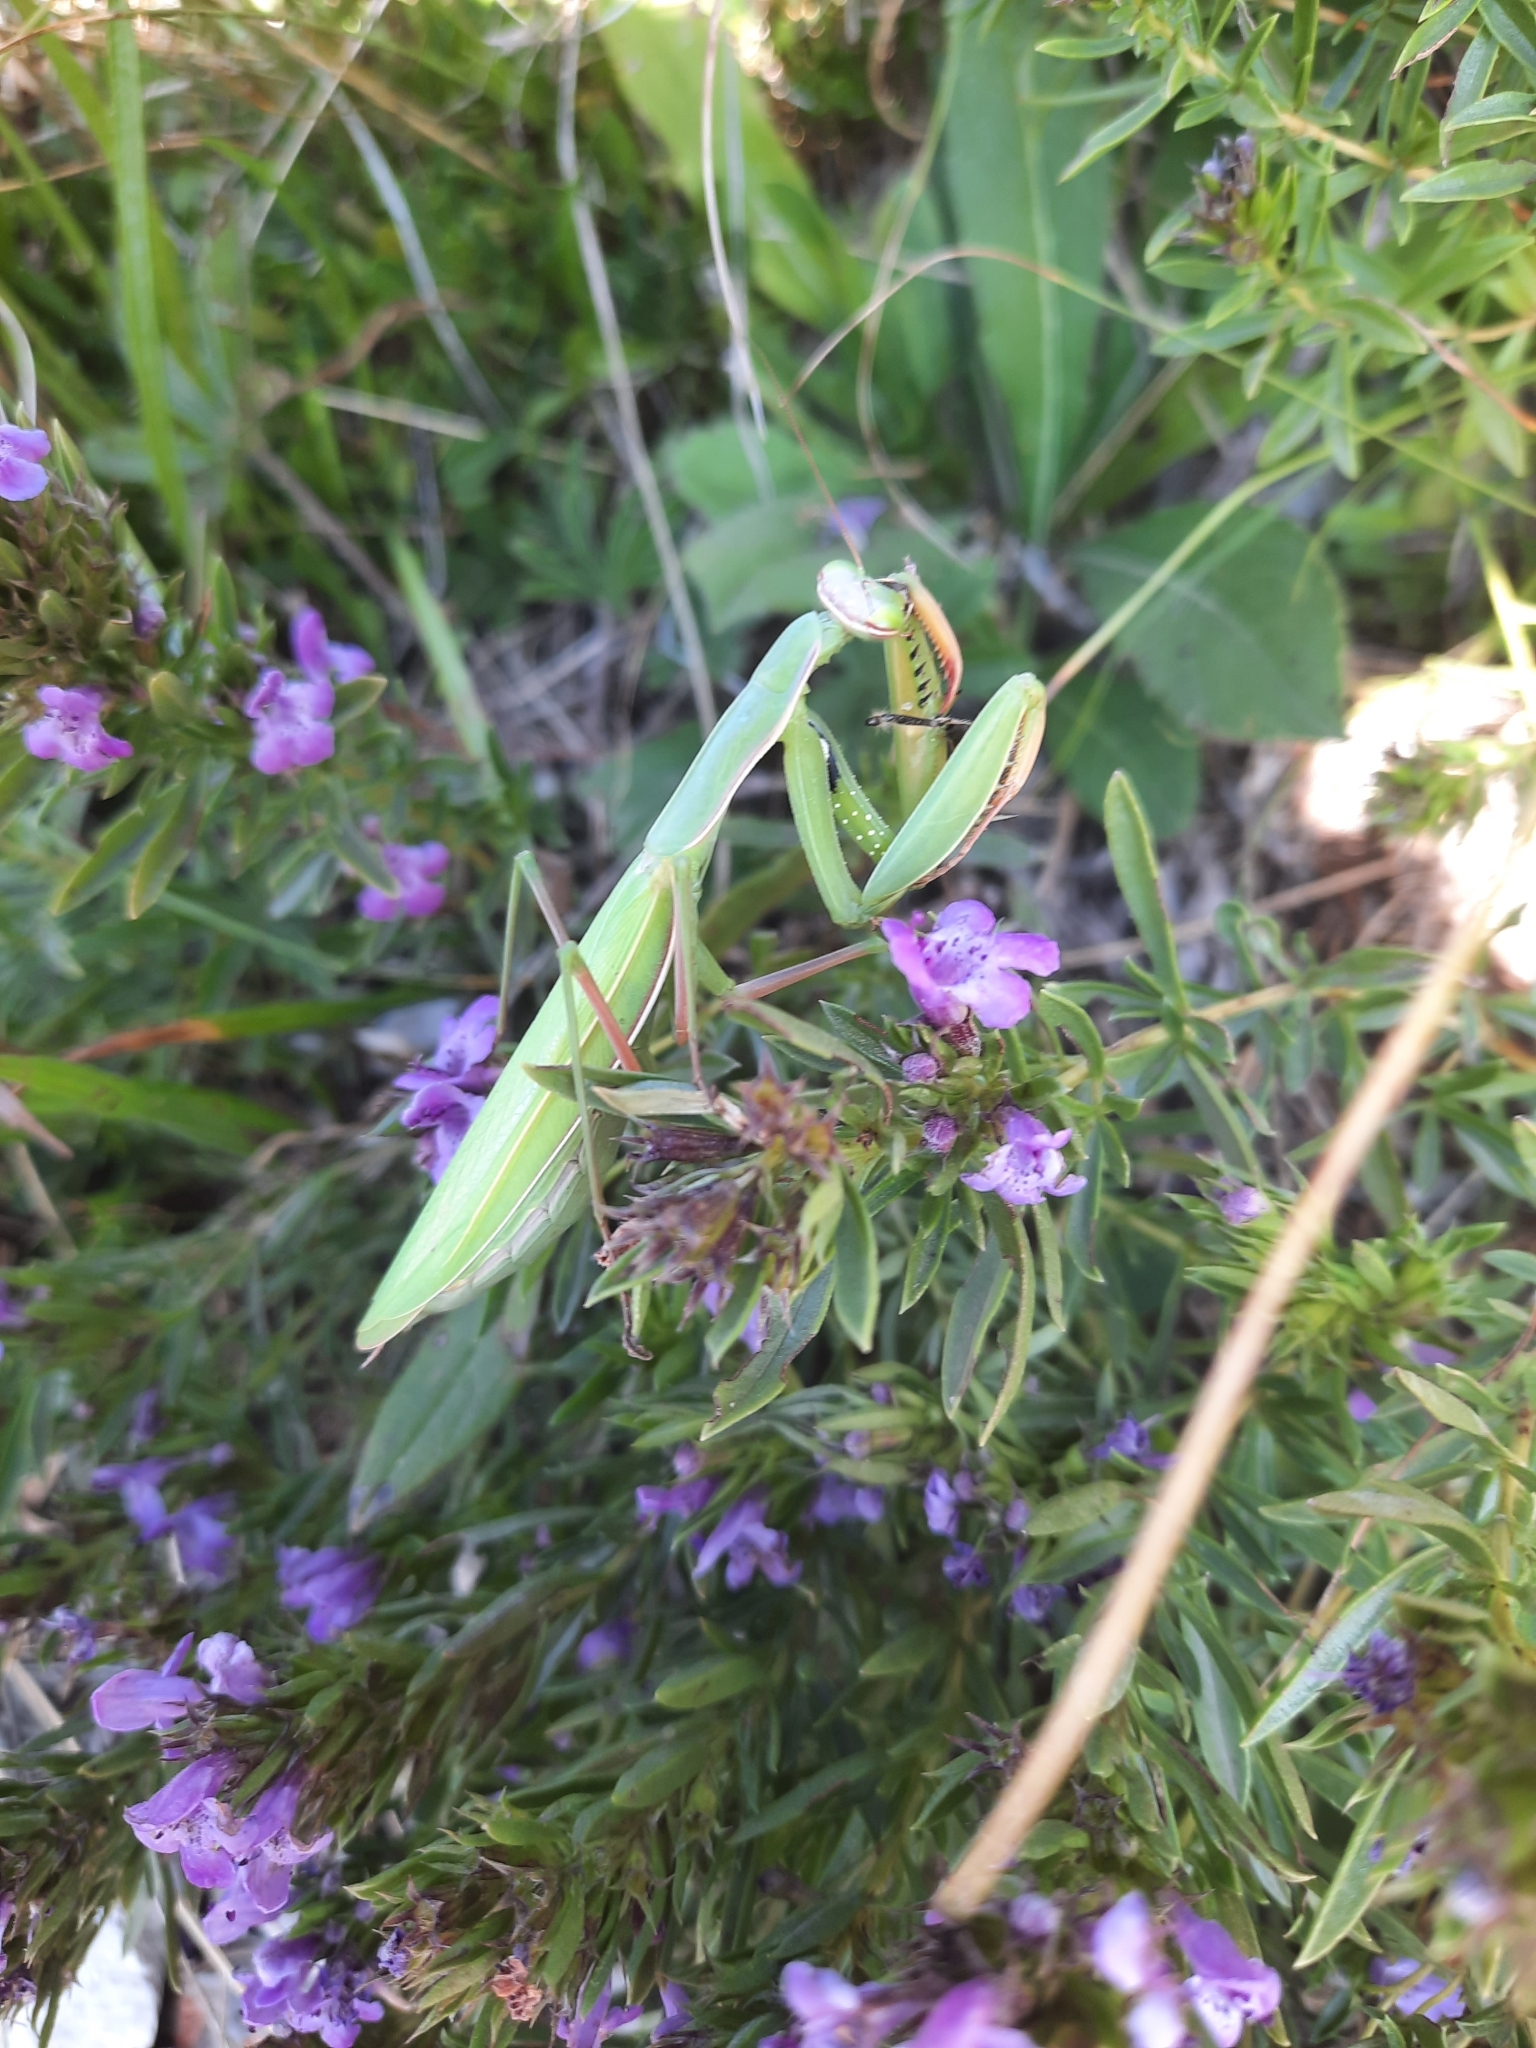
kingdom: Animalia
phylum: Arthropoda
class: Insecta
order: Mantodea
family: Mantidae
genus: Mantis
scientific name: Mantis religiosa
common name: Praying mantis
